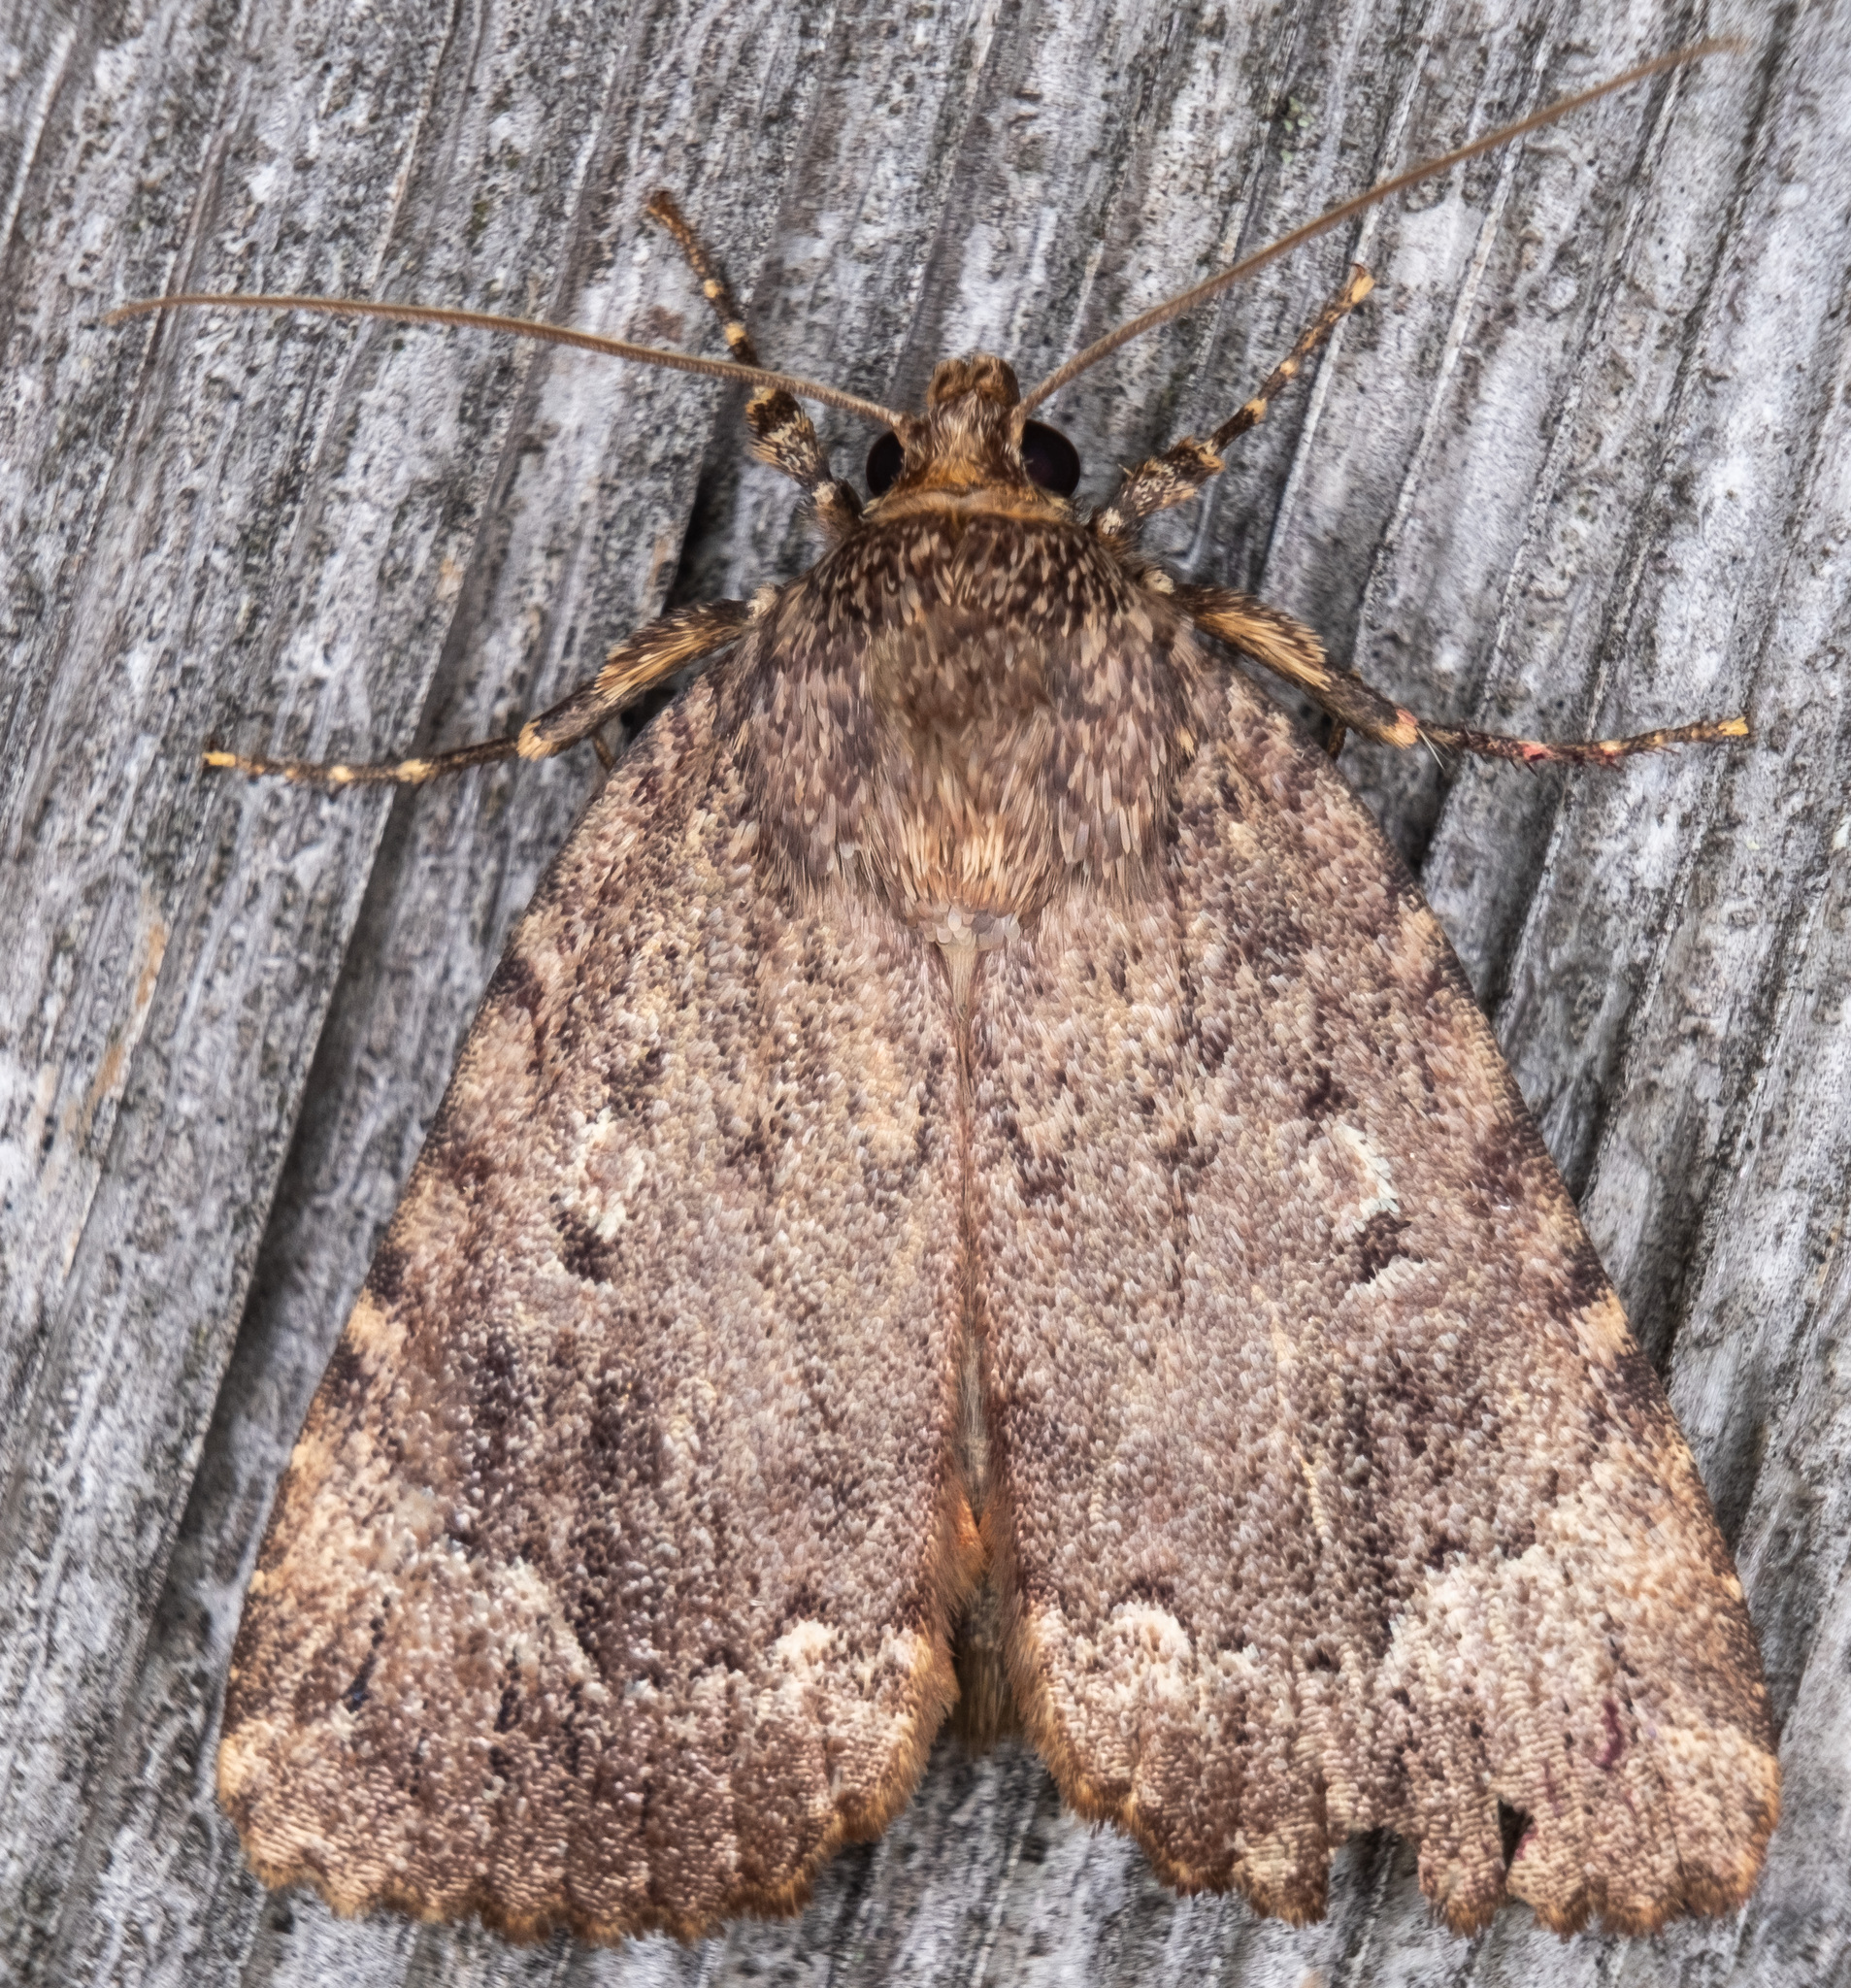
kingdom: Animalia
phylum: Arthropoda
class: Insecta
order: Lepidoptera
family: Noctuidae
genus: Amphipyra
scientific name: Amphipyra pyramidoides
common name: American copper underwing
